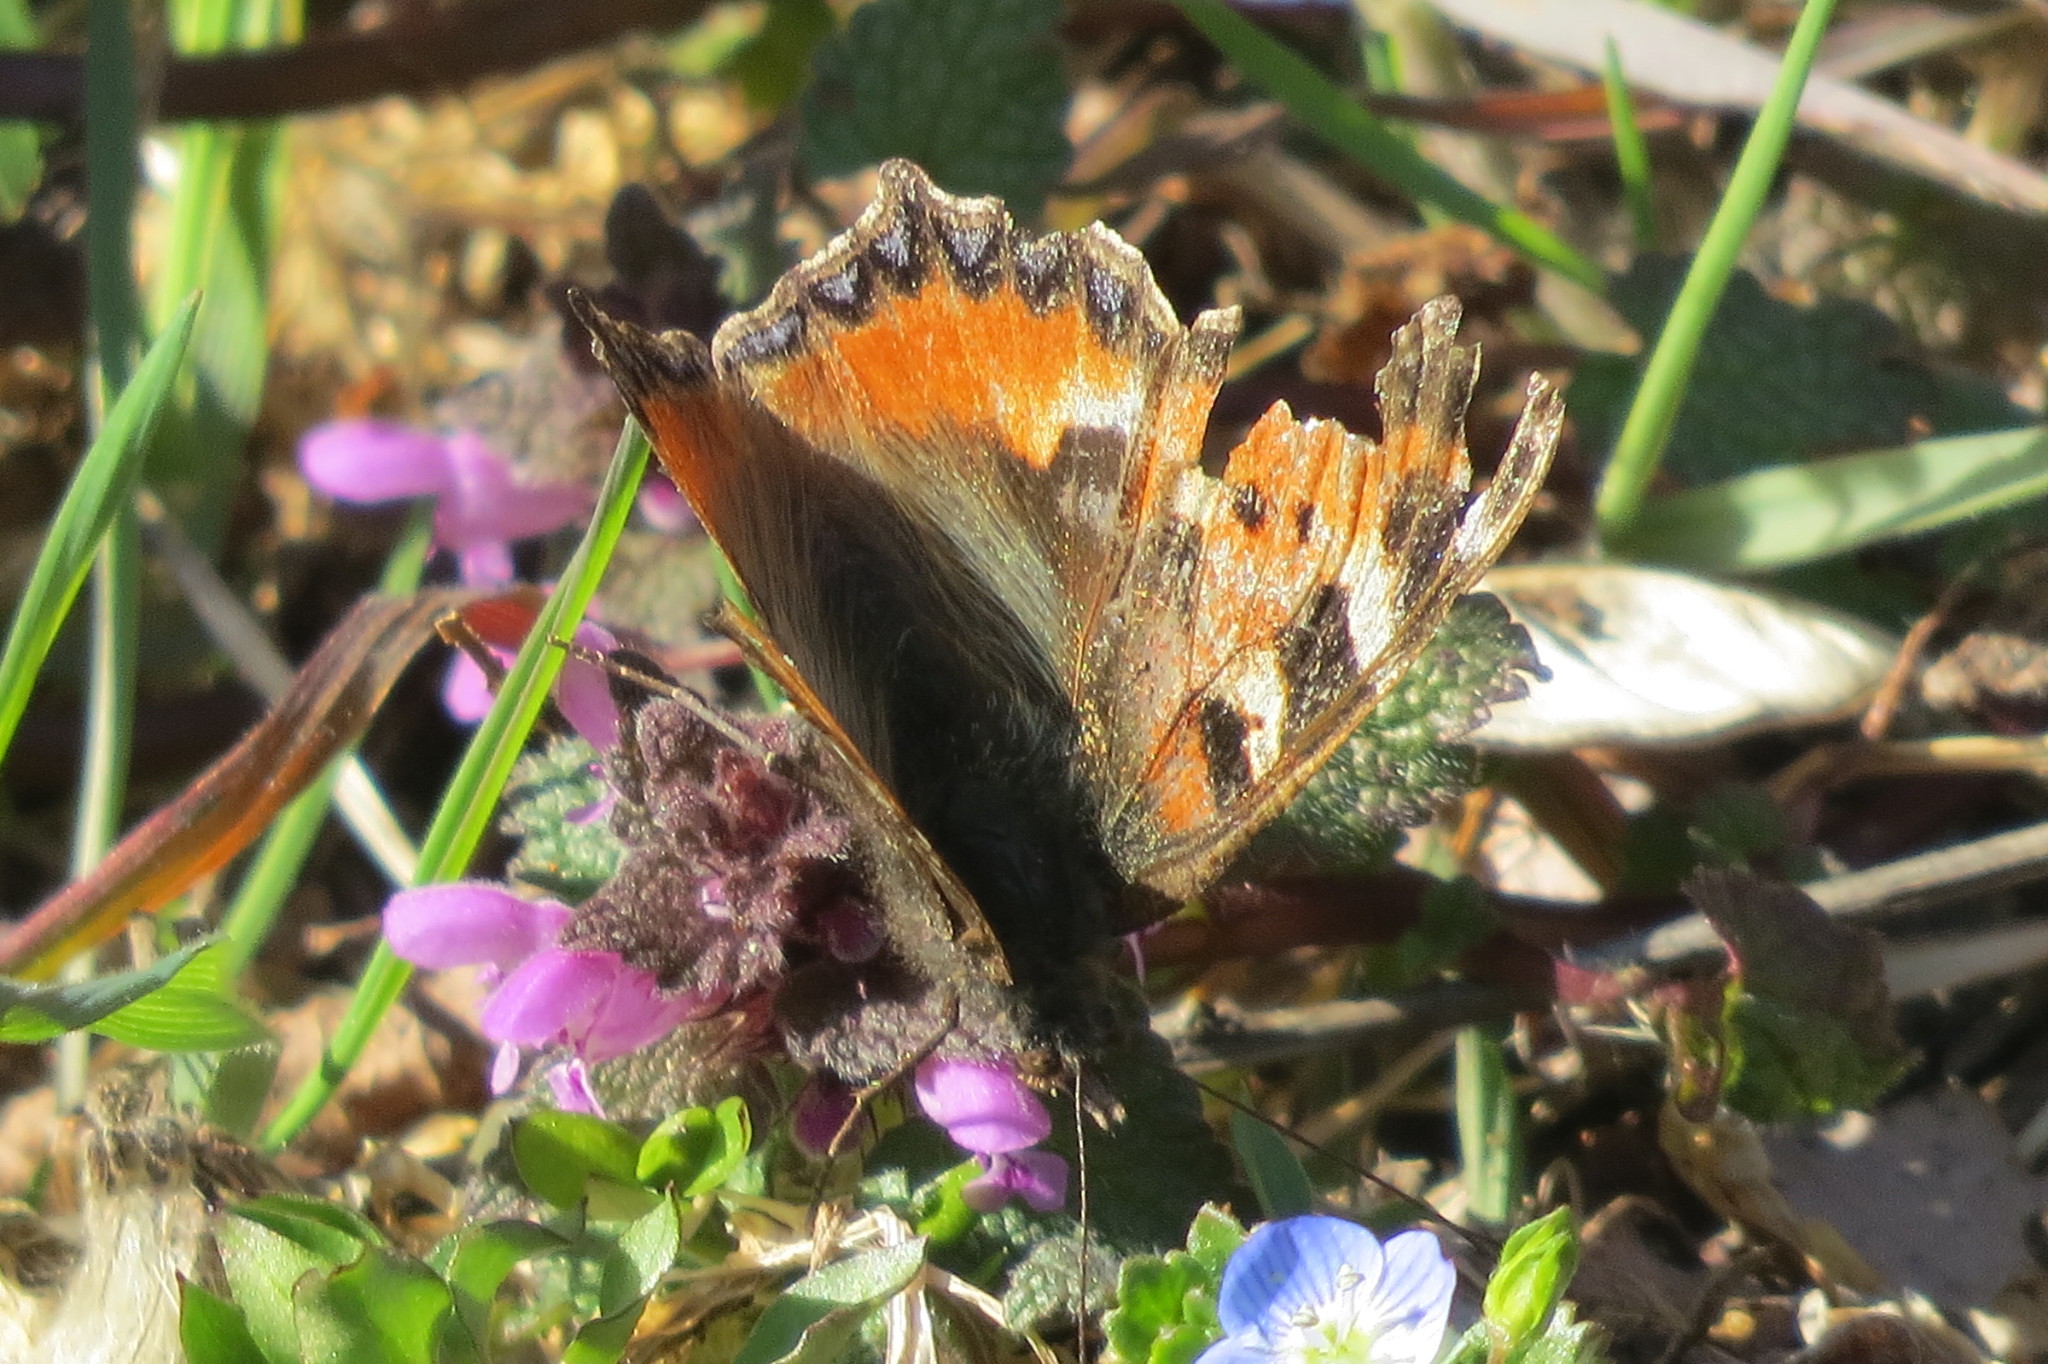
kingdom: Animalia
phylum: Arthropoda
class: Insecta
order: Lepidoptera
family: Nymphalidae
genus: Aglais
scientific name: Aglais urticae
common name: Small tortoiseshell
